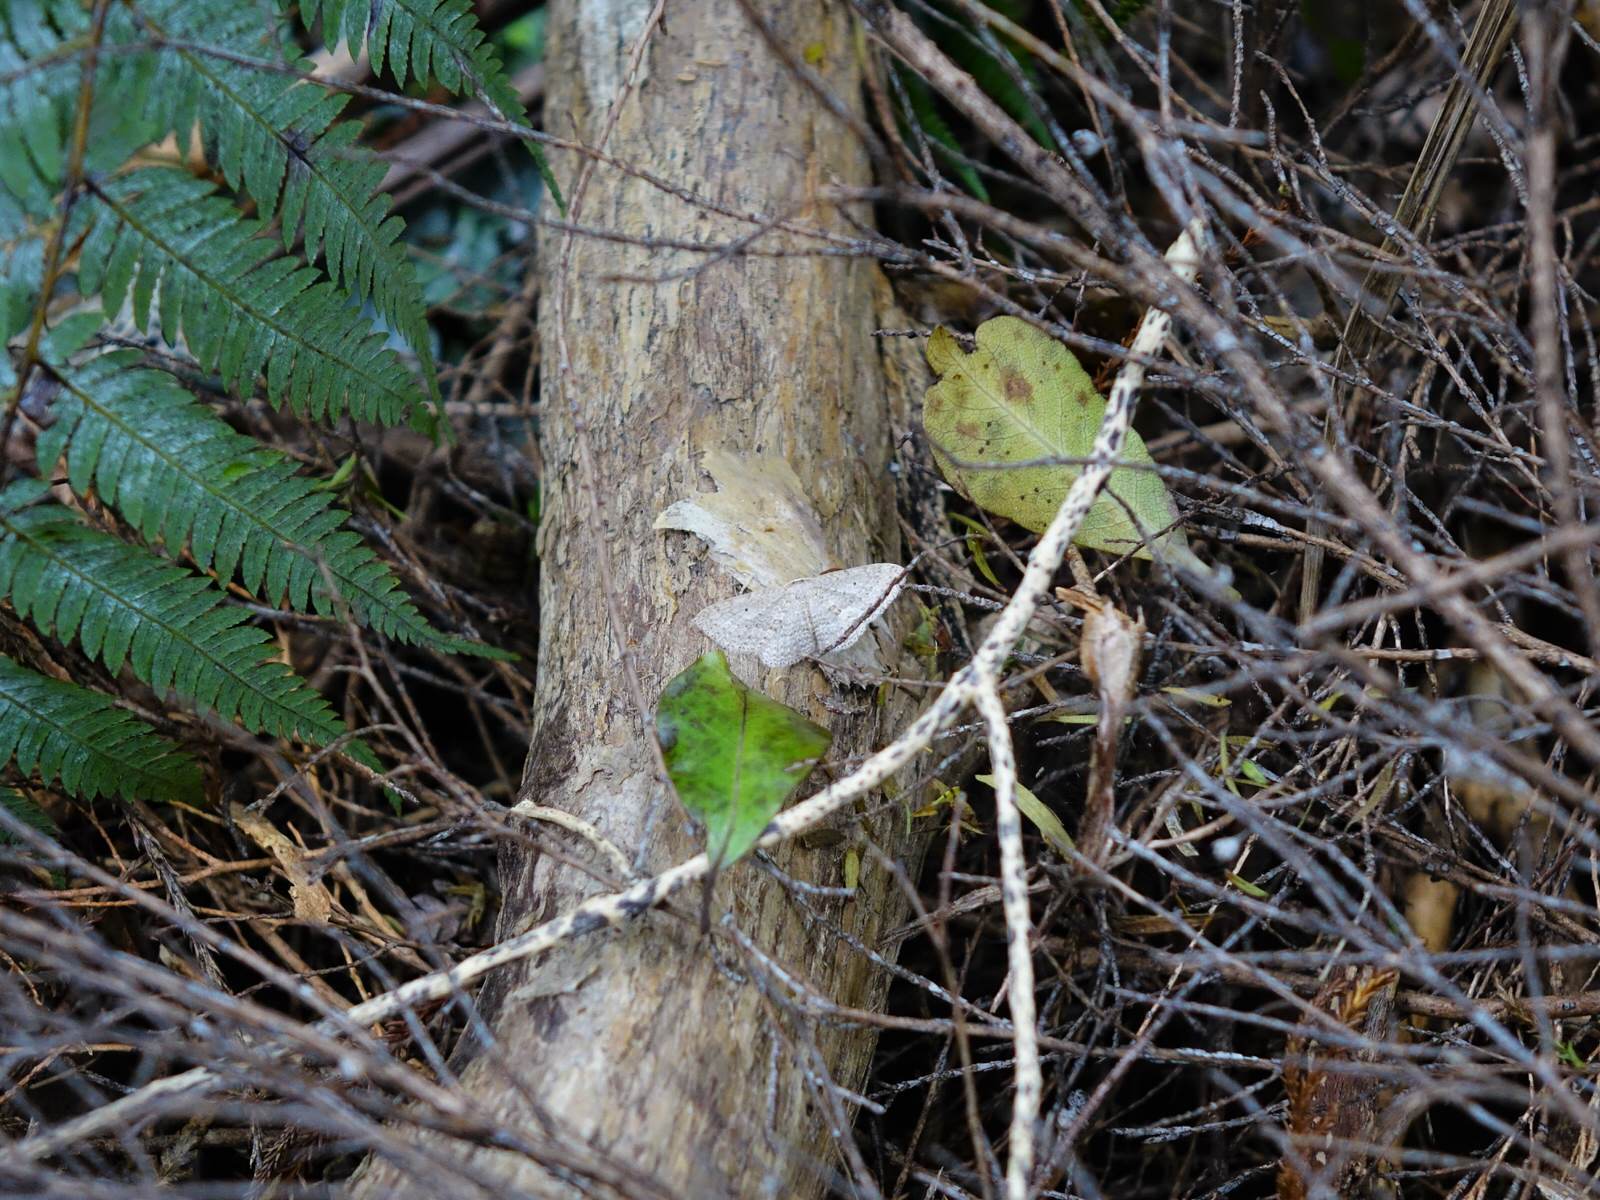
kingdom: Animalia
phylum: Arthropoda
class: Insecta
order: Lepidoptera
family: Geometridae
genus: Poecilasthena
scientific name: Poecilasthena schistaria
